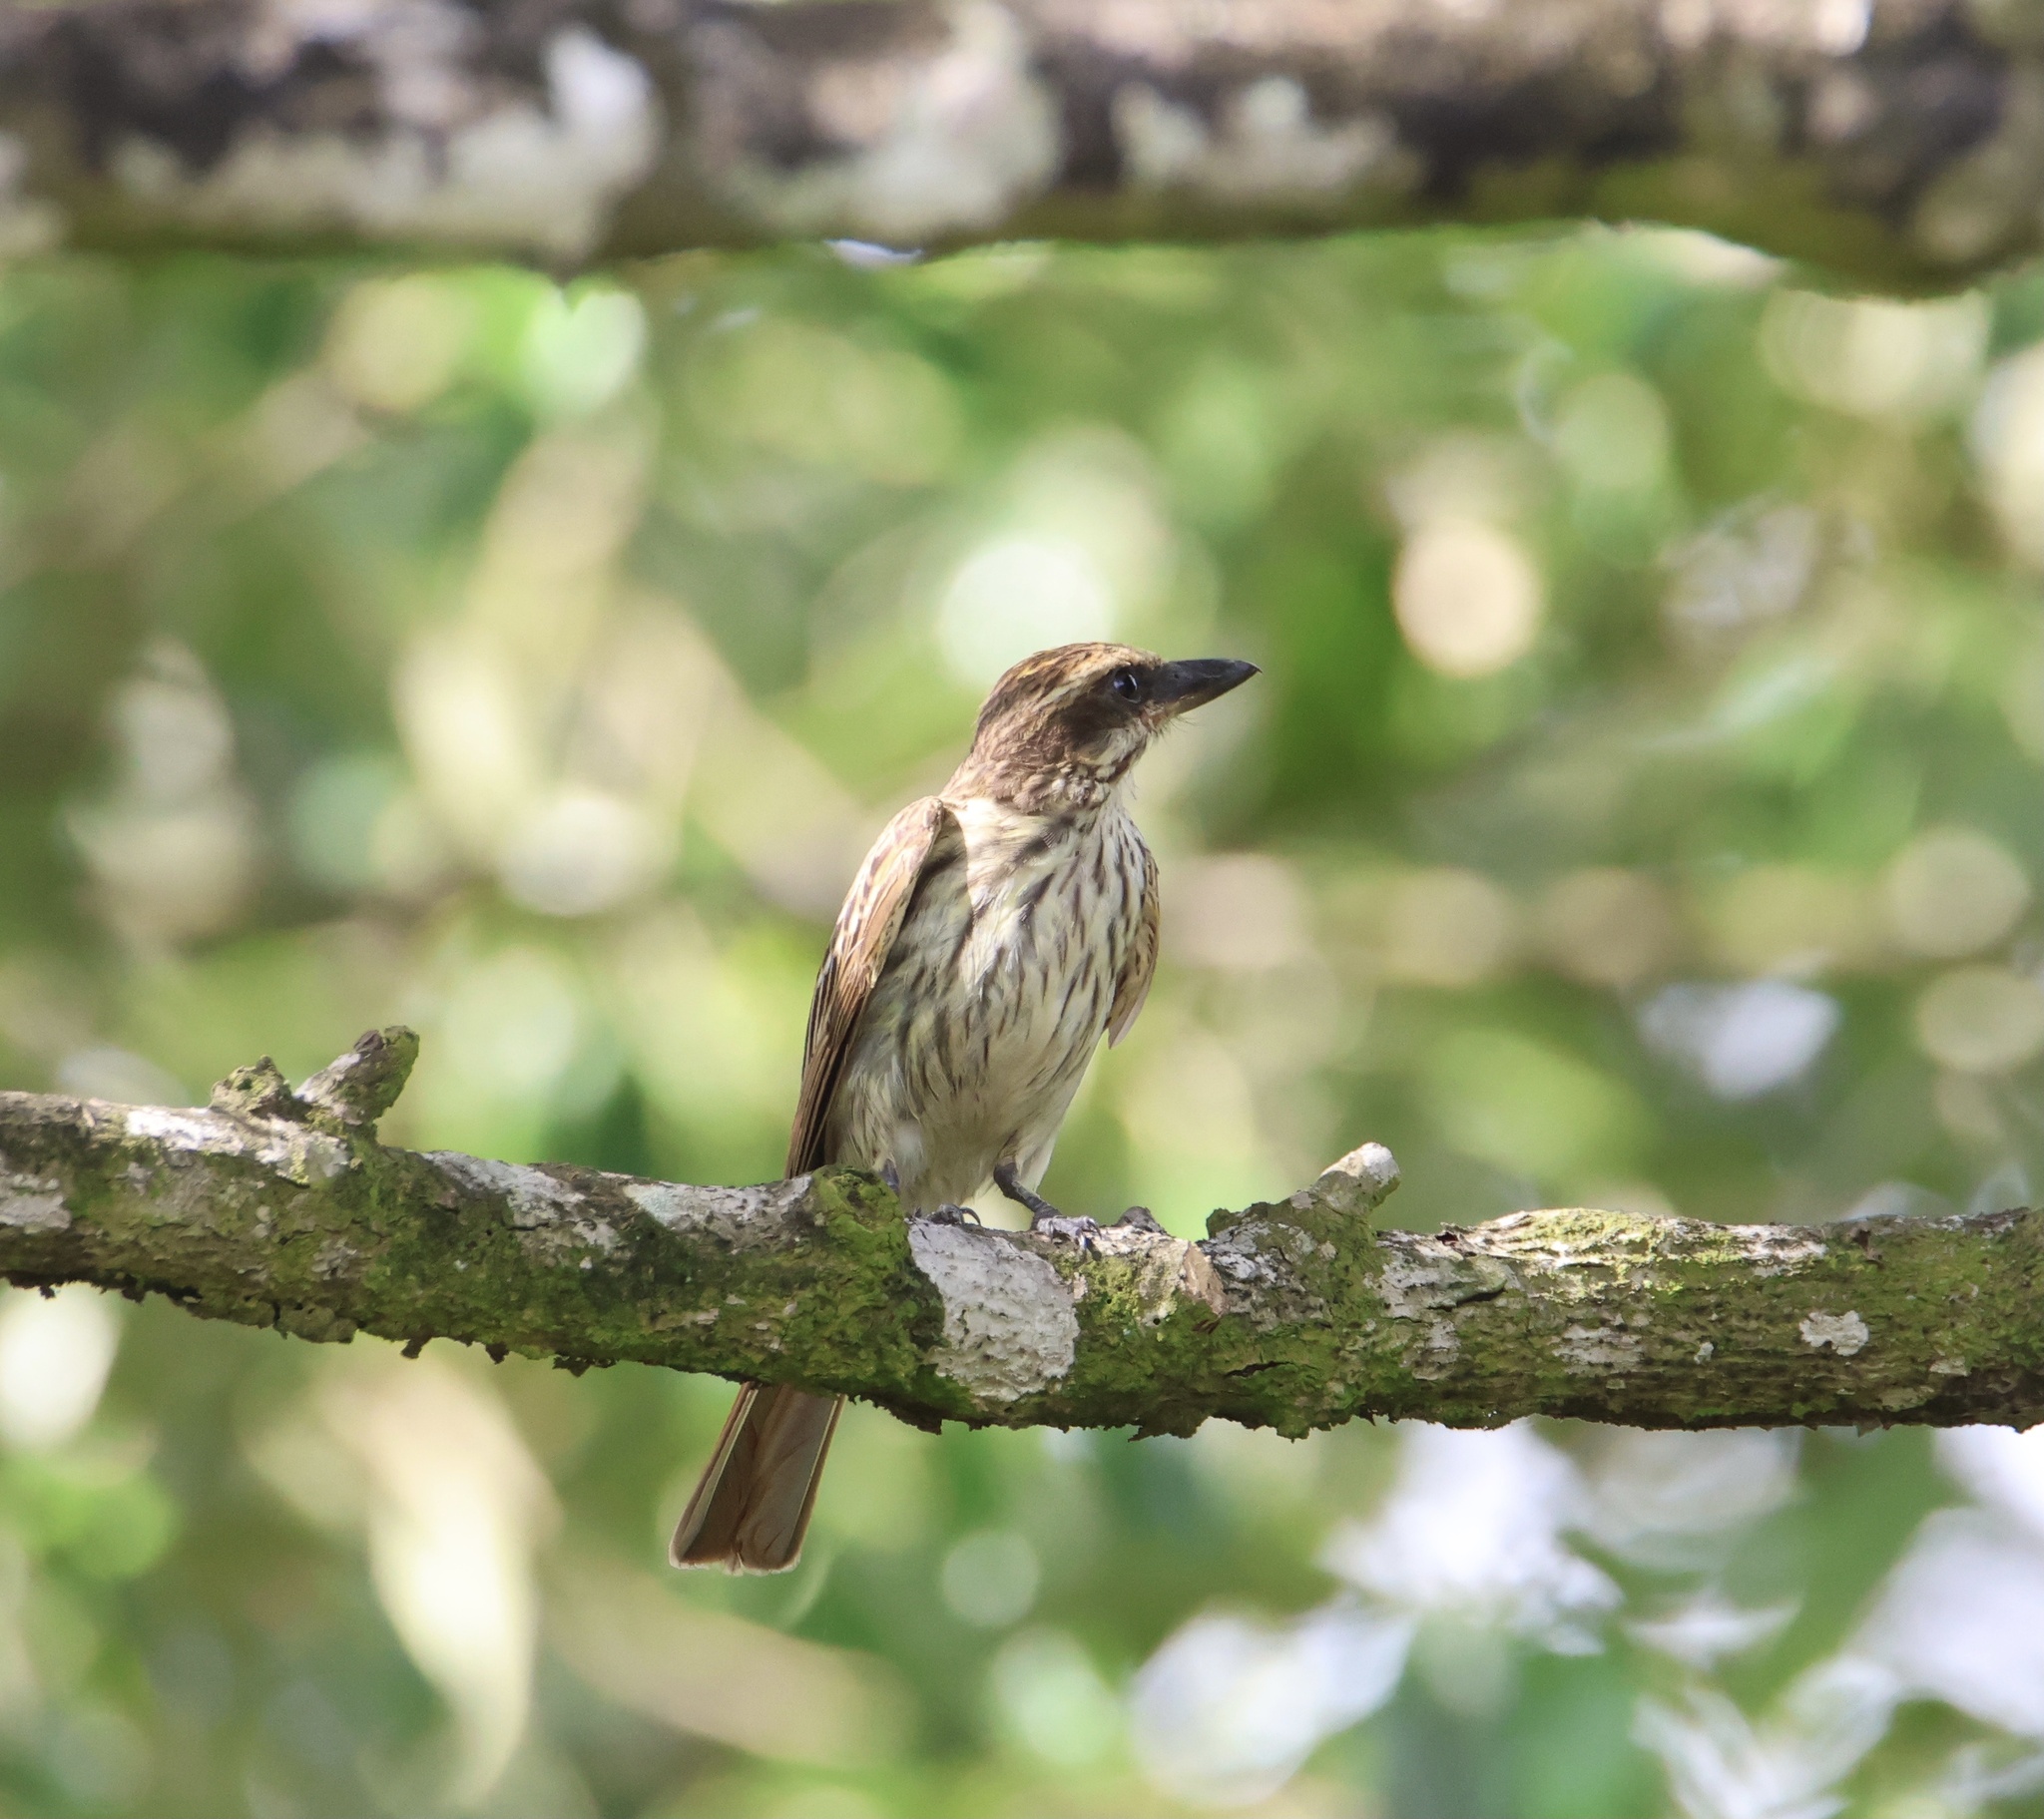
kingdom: Animalia
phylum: Chordata
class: Aves
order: Passeriformes
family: Tyrannidae
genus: Myiodynastes
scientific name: Myiodynastes maculatus
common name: Streaked flycatcher
